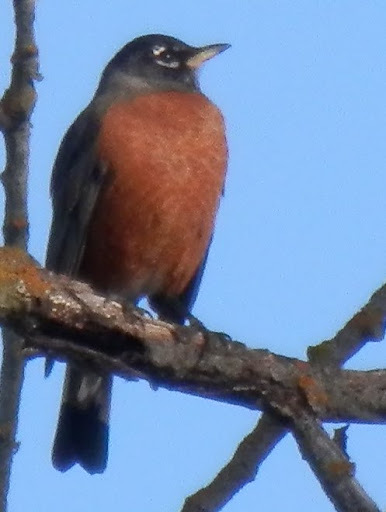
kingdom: Animalia
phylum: Chordata
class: Aves
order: Passeriformes
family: Turdidae
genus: Turdus
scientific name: Turdus migratorius
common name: American robin
